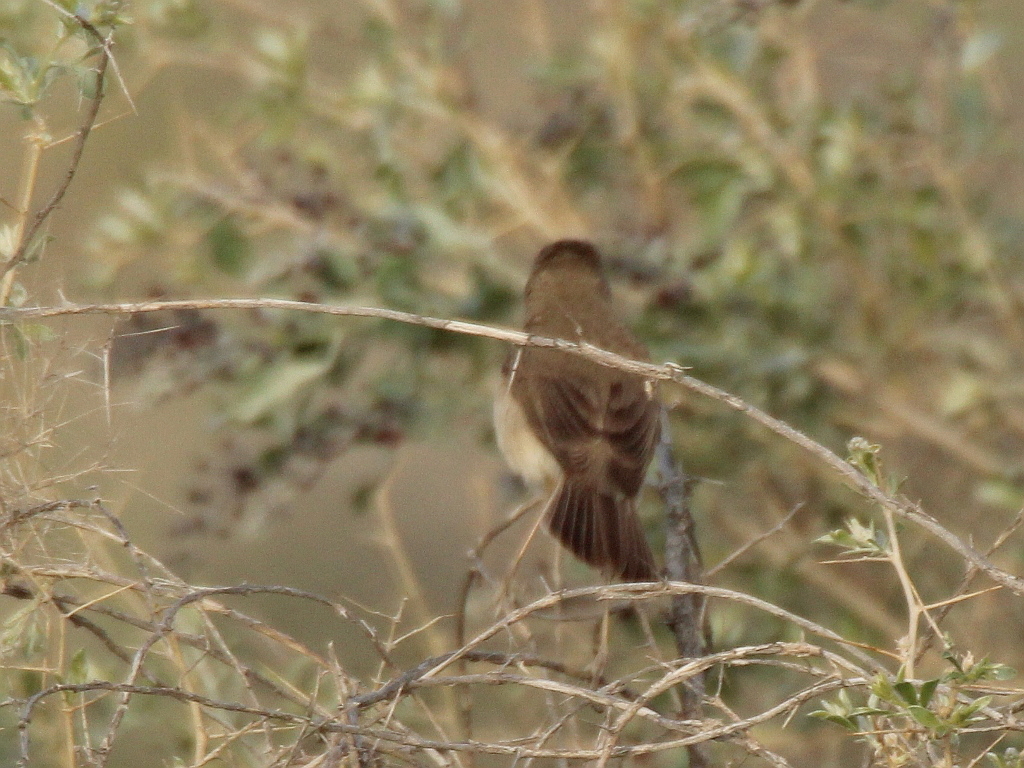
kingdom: Animalia
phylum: Chordata
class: Aves
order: Passeriformes
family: Acrocephalidae
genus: Iduna
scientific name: Iduna caligata
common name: Booted warbler
